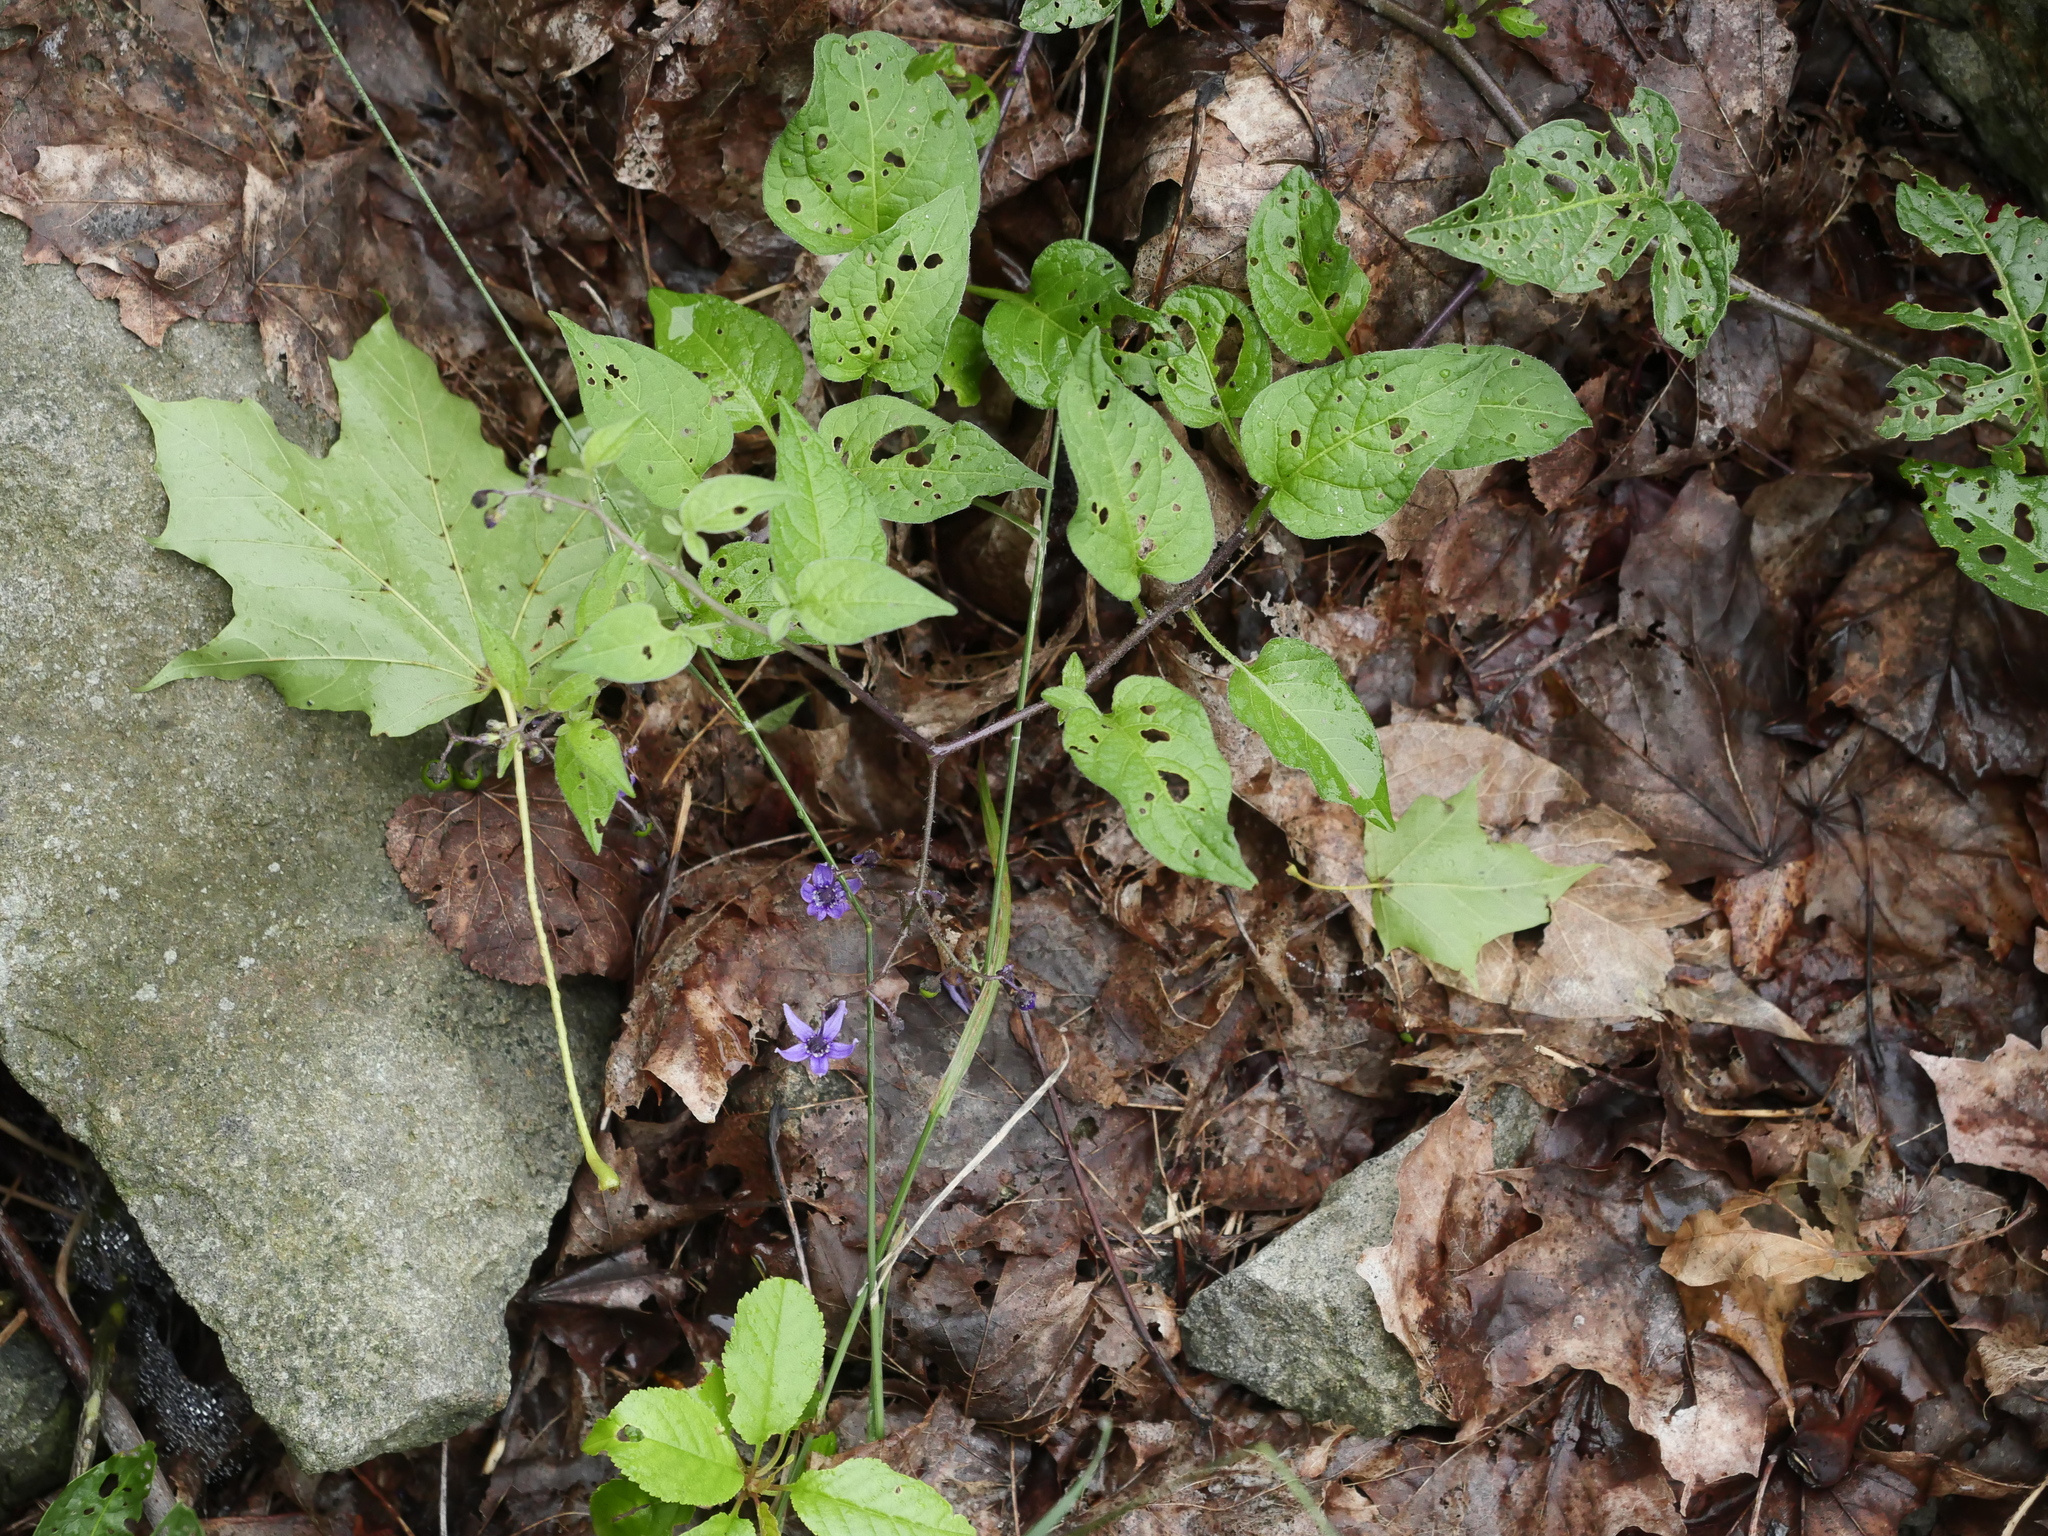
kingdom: Plantae
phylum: Tracheophyta
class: Magnoliopsida
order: Solanales
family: Solanaceae
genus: Solanum
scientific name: Solanum dulcamara
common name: Climbing nightshade
